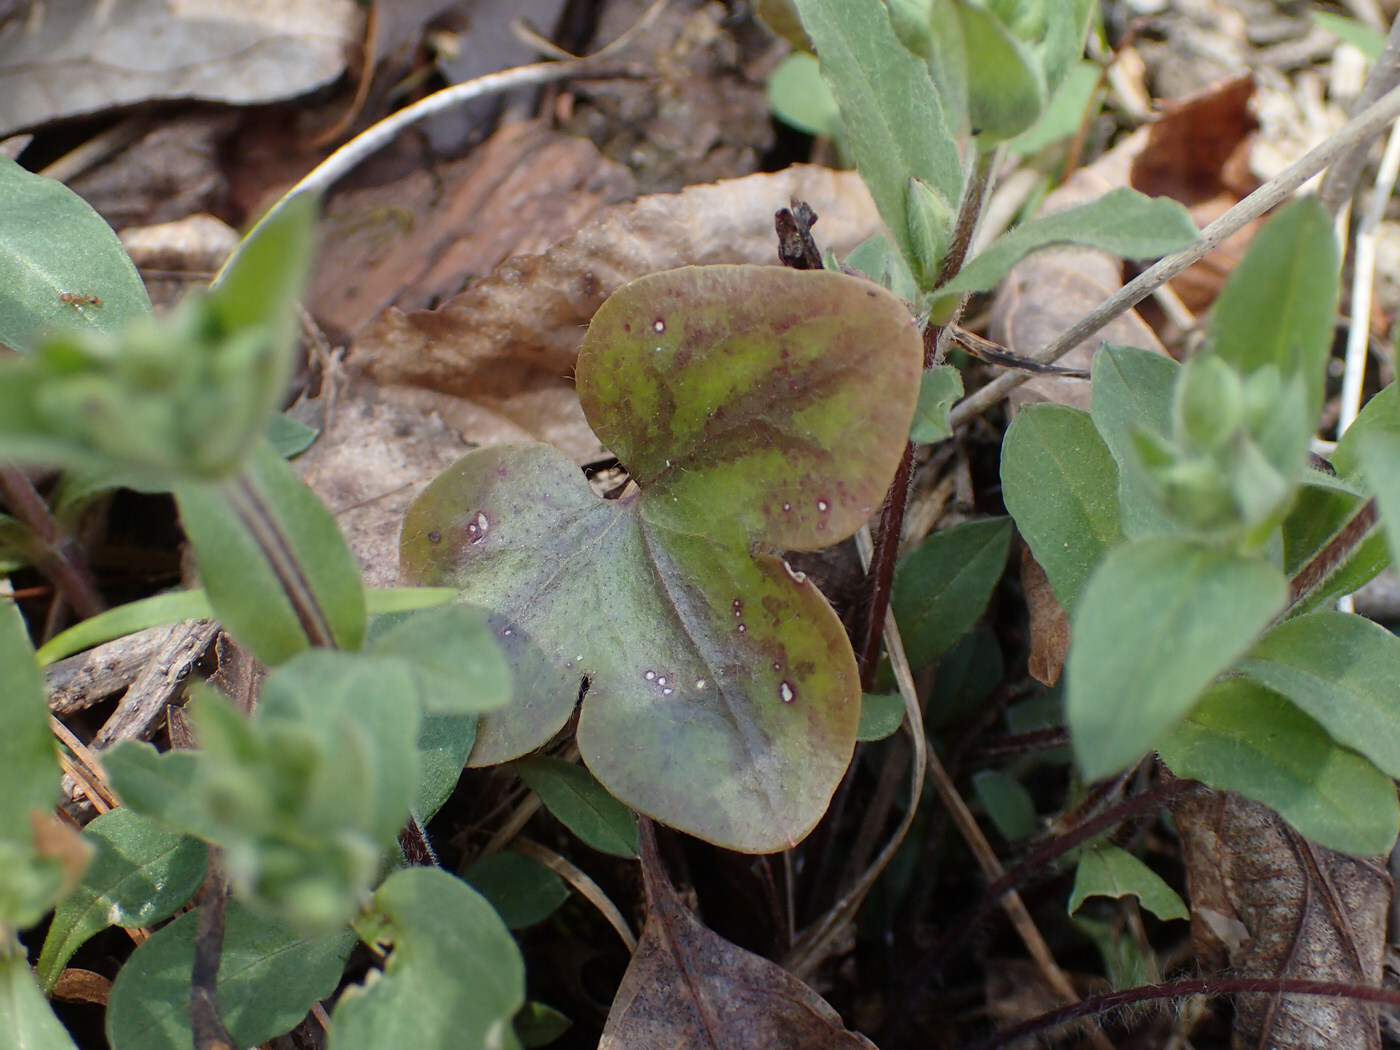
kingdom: Plantae
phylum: Tracheophyta
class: Magnoliopsida
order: Ranunculales
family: Ranunculaceae
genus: Hepatica
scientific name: Hepatica americana
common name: American hepatica
